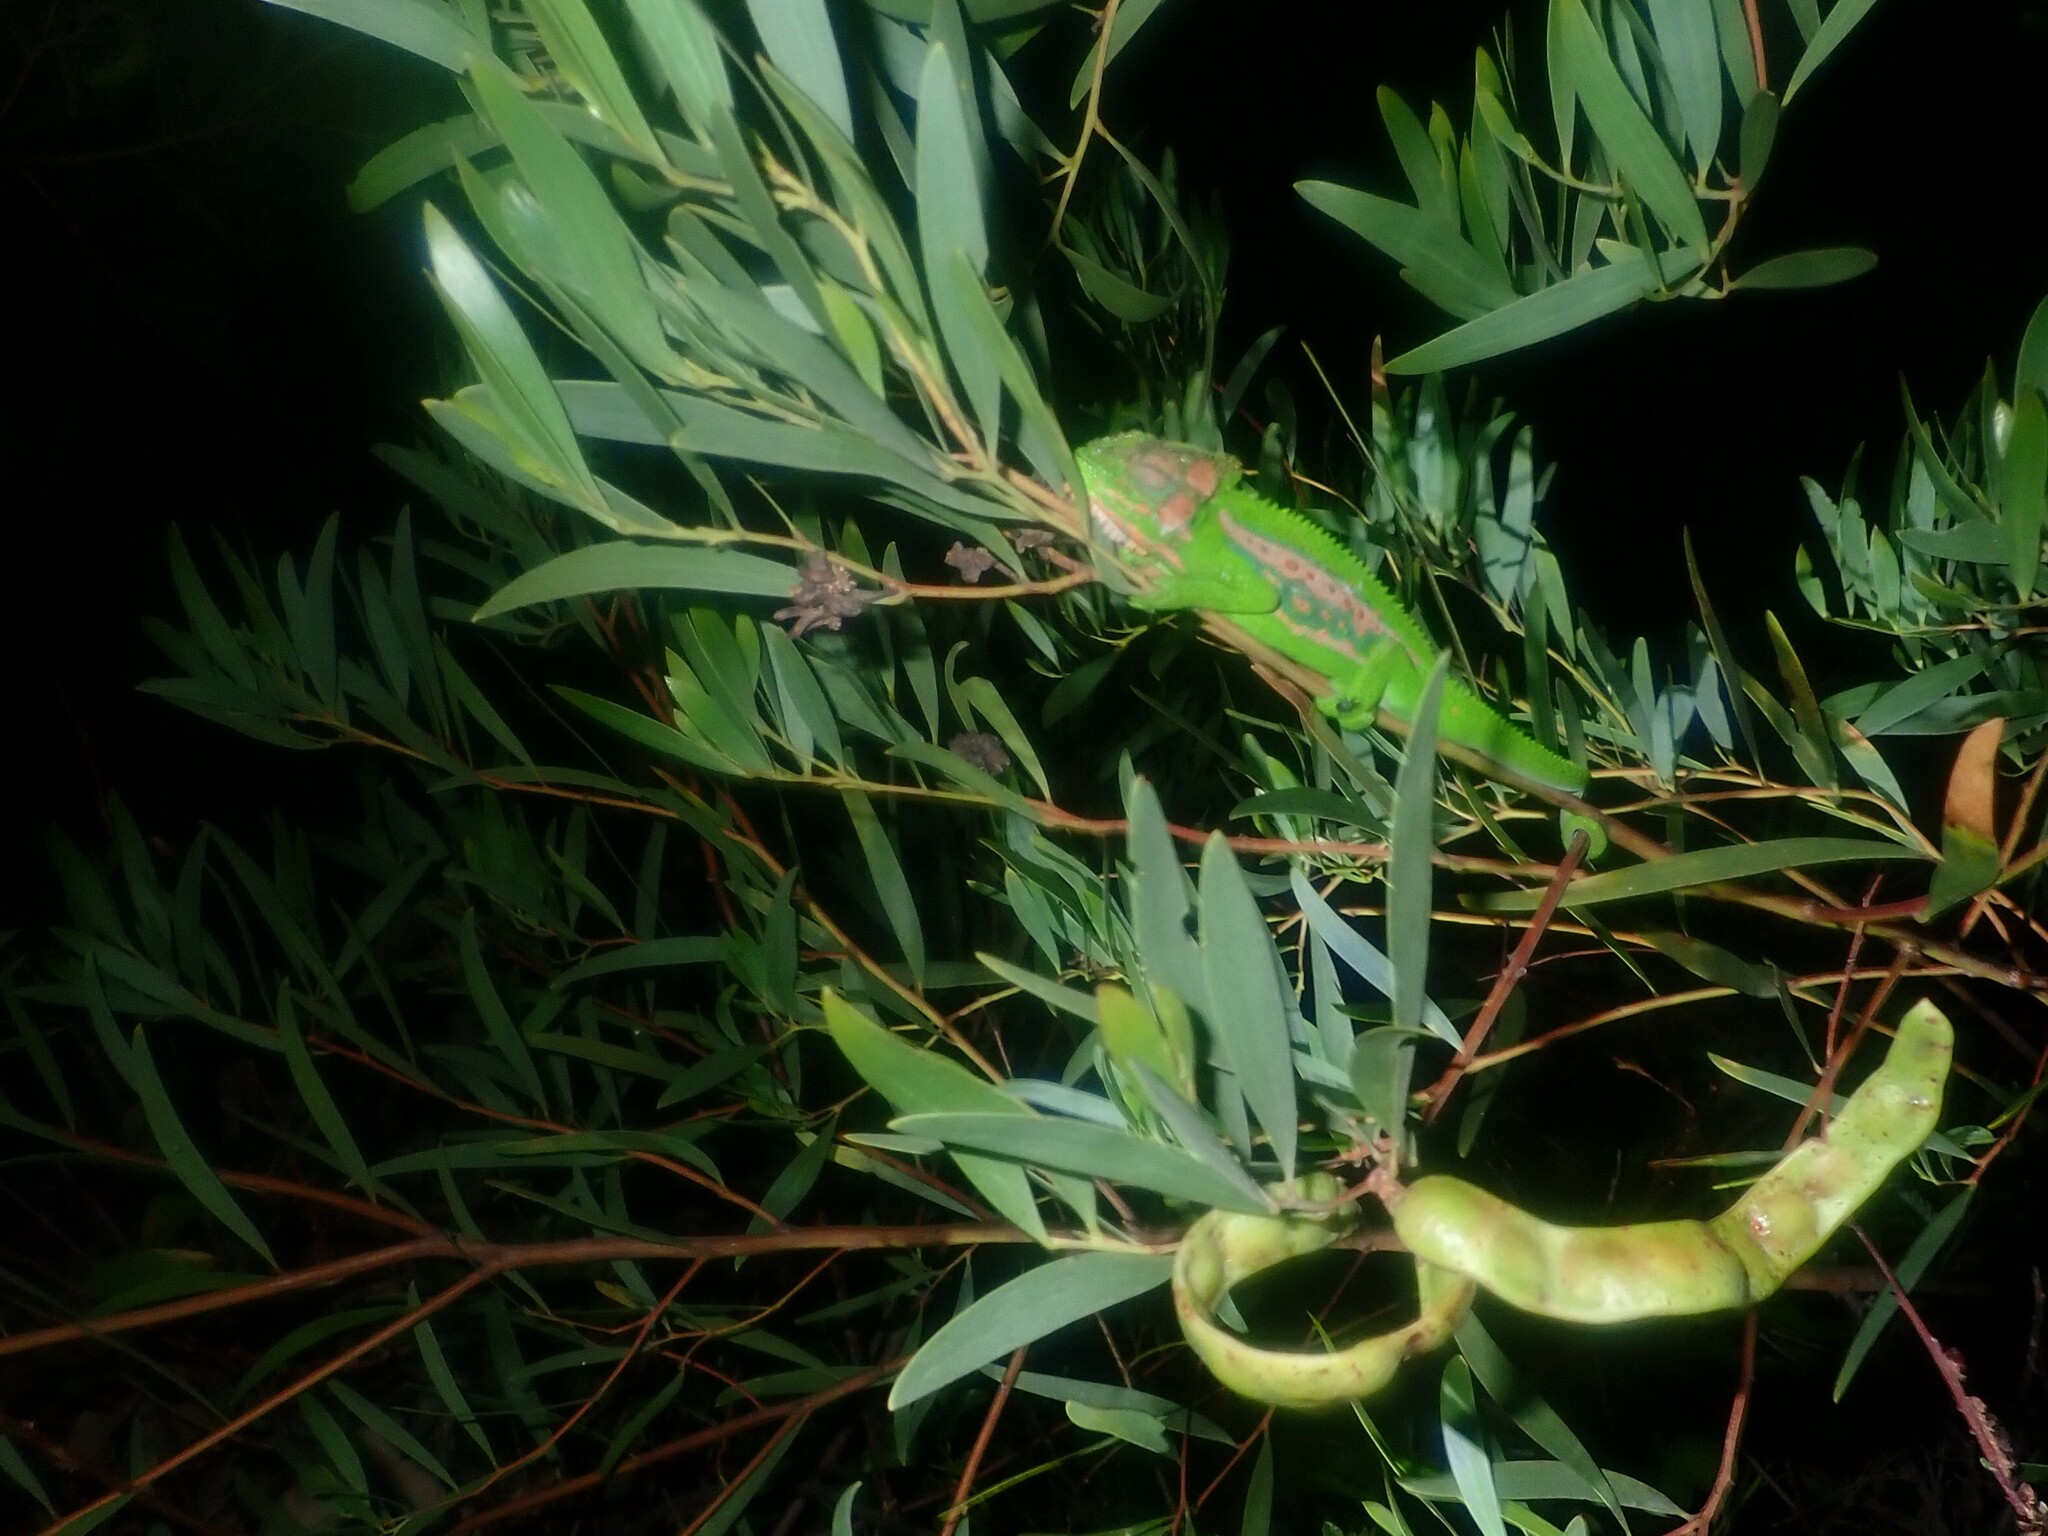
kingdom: Animalia
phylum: Chordata
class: Squamata
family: Chamaeleonidae
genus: Bradypodion
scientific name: Bradypodion pumilum
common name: Cape dwarf chameleon
